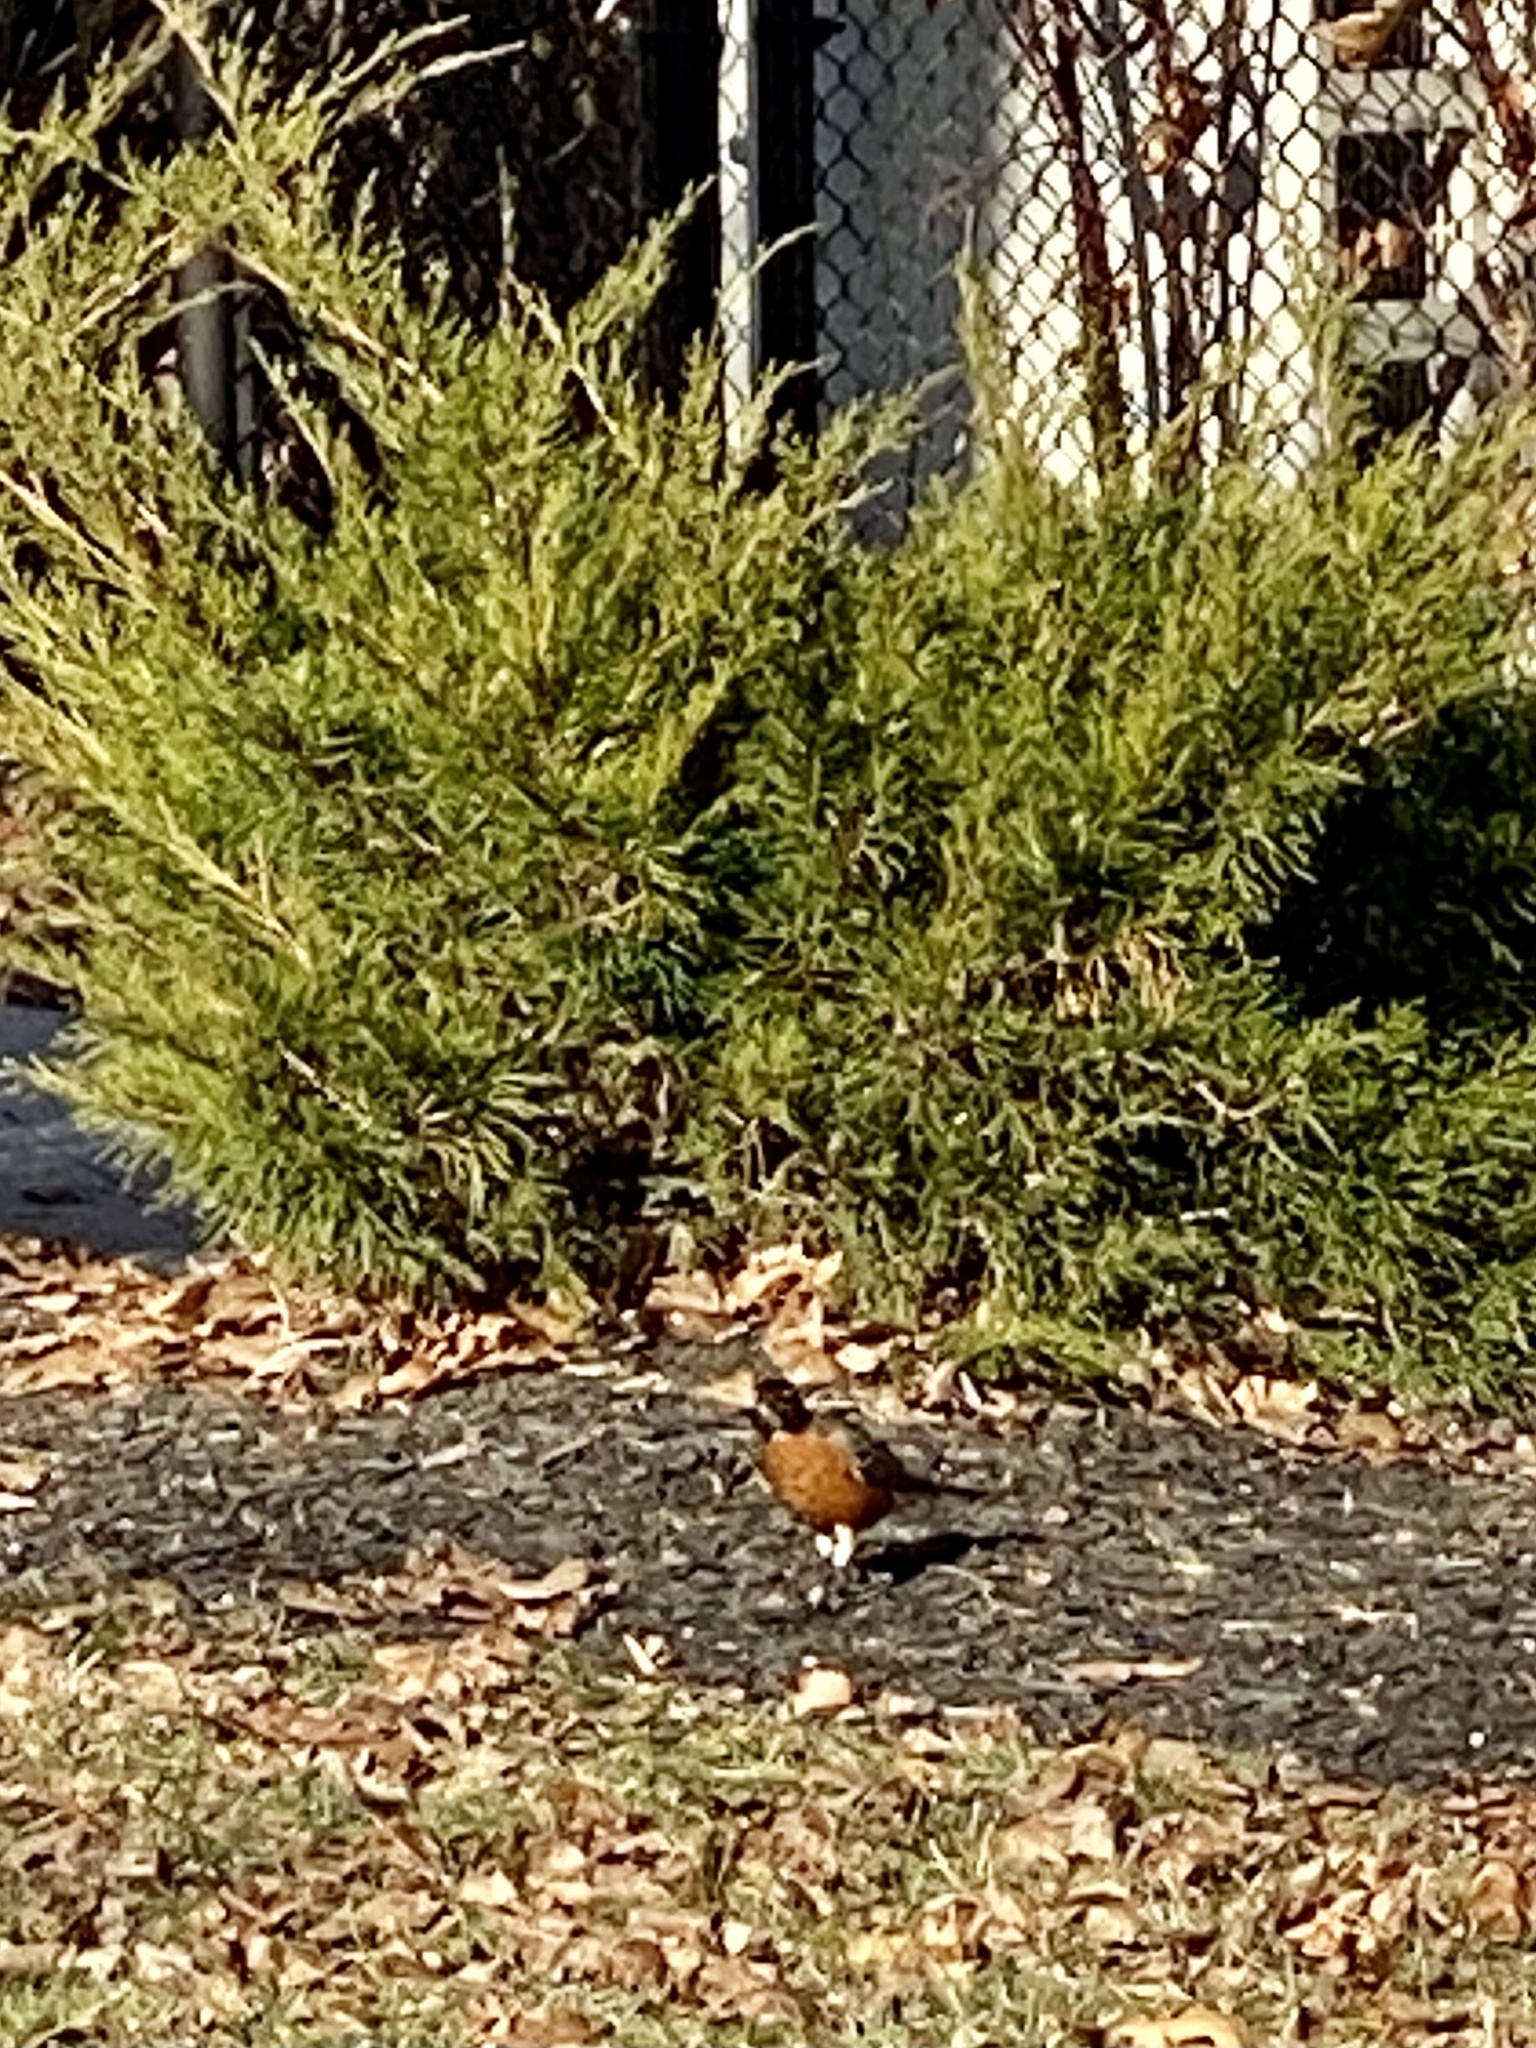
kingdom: Animalia
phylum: Chordata
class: Aves
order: Passeriformes
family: Turdidae
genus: Turdus
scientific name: Turdus migratorius
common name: American robin
